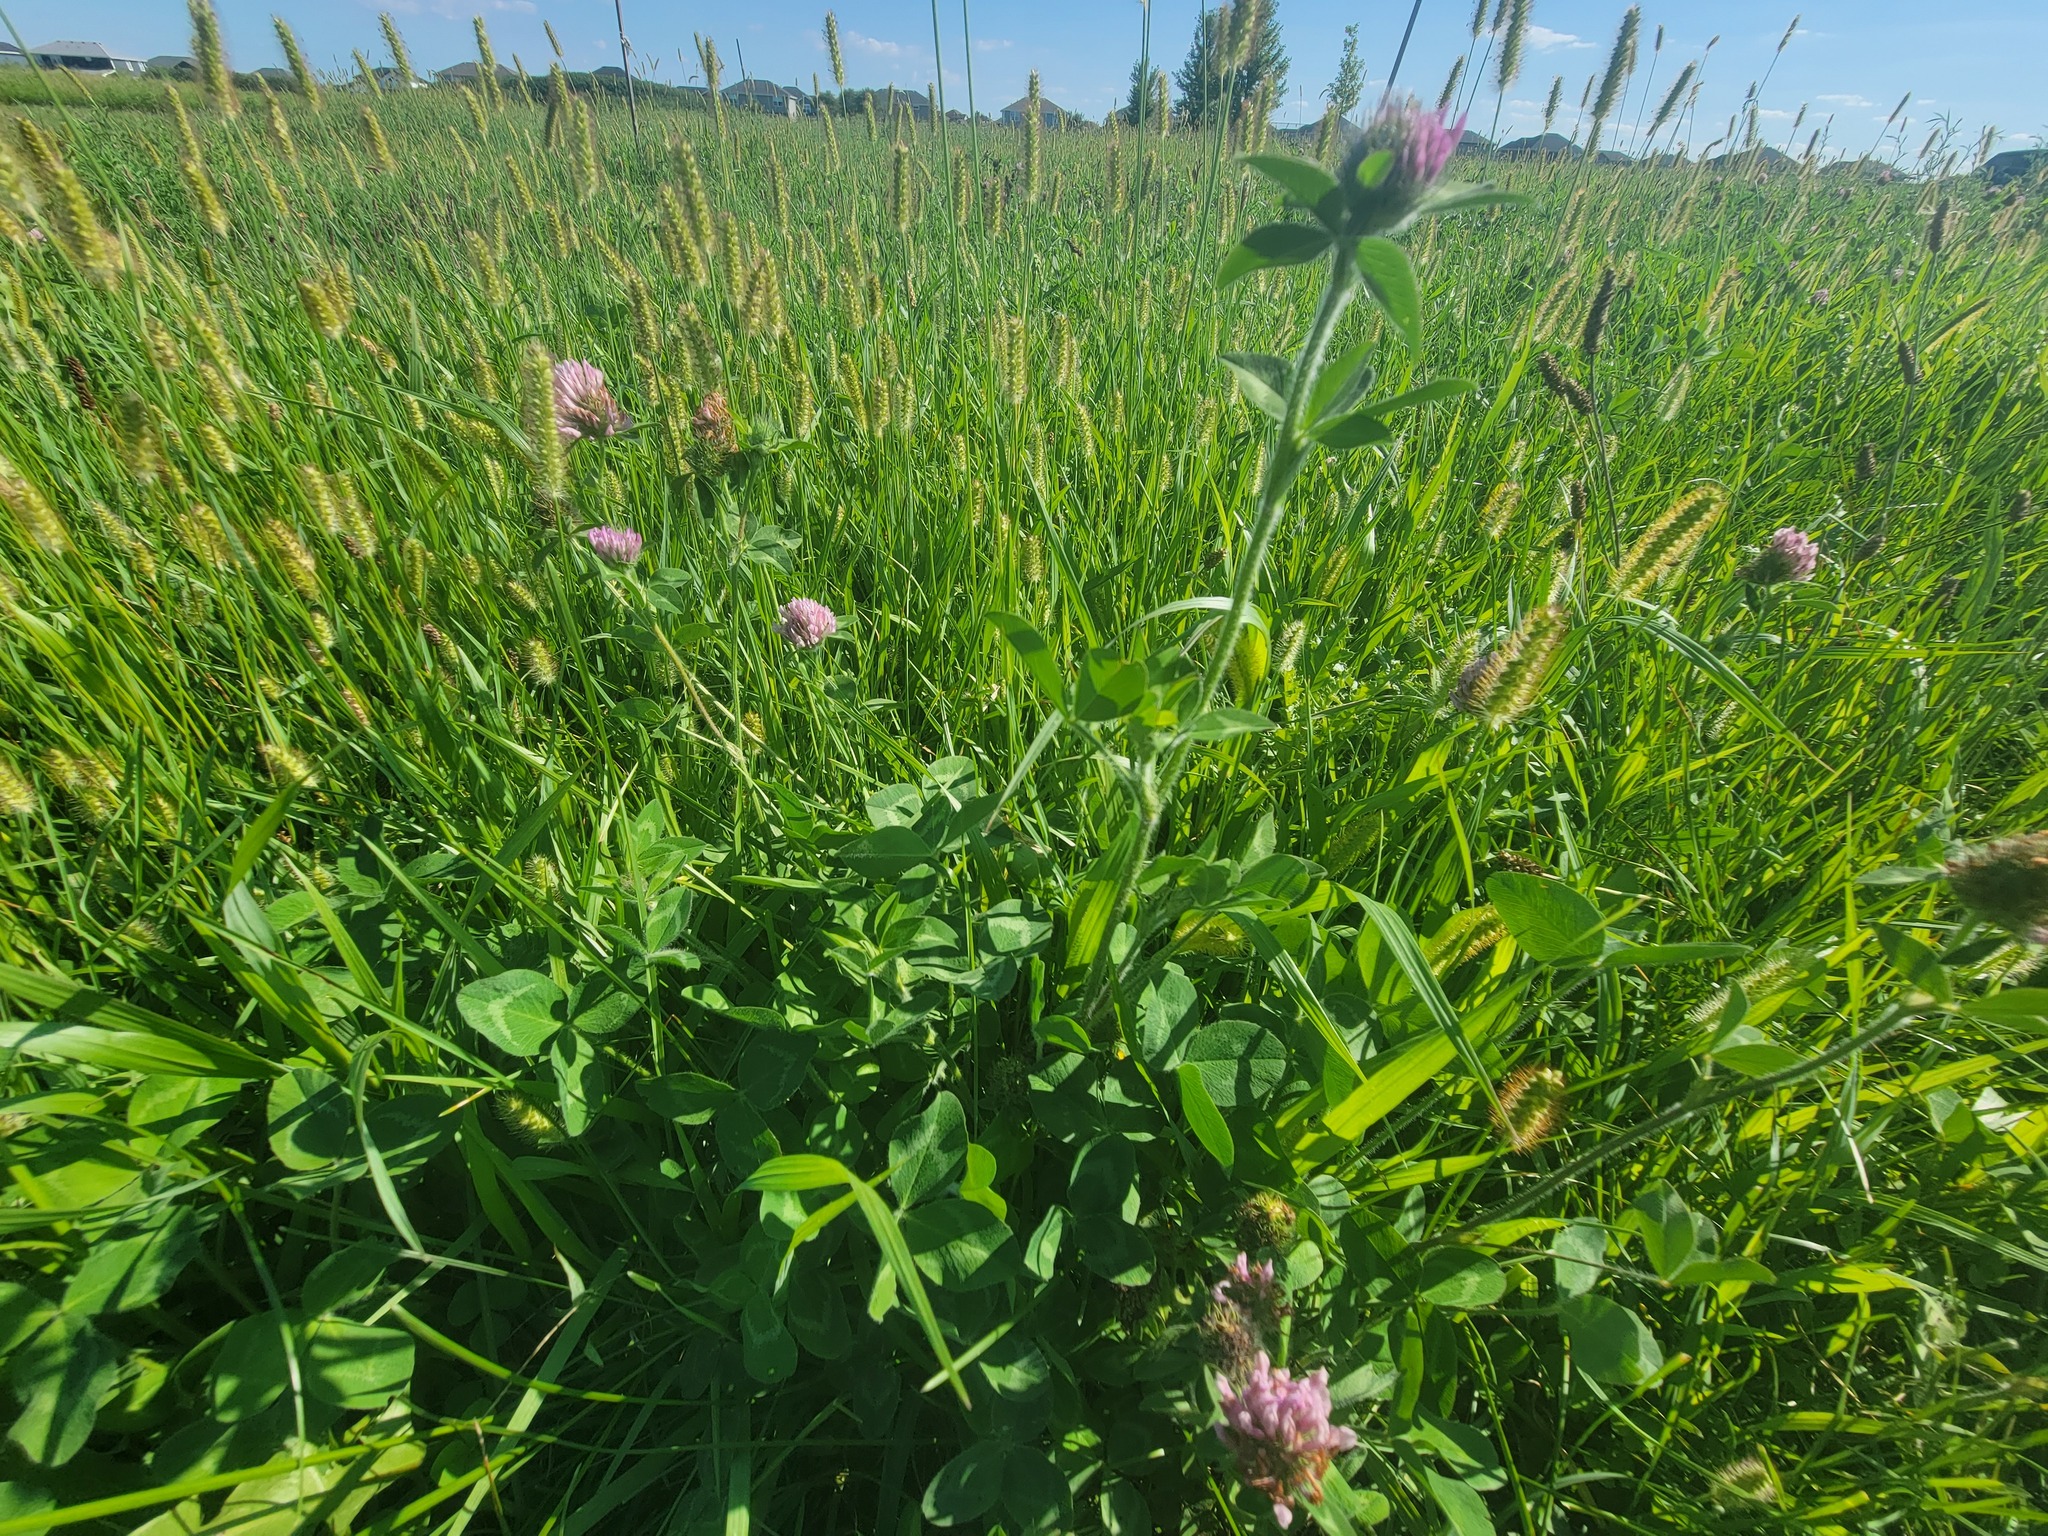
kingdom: Plantae
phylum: Tracheophyta
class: Magnoliopsida
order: Fabales
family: Fabaceae
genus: Trifolium
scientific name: Trifolium pratense
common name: Red clover
